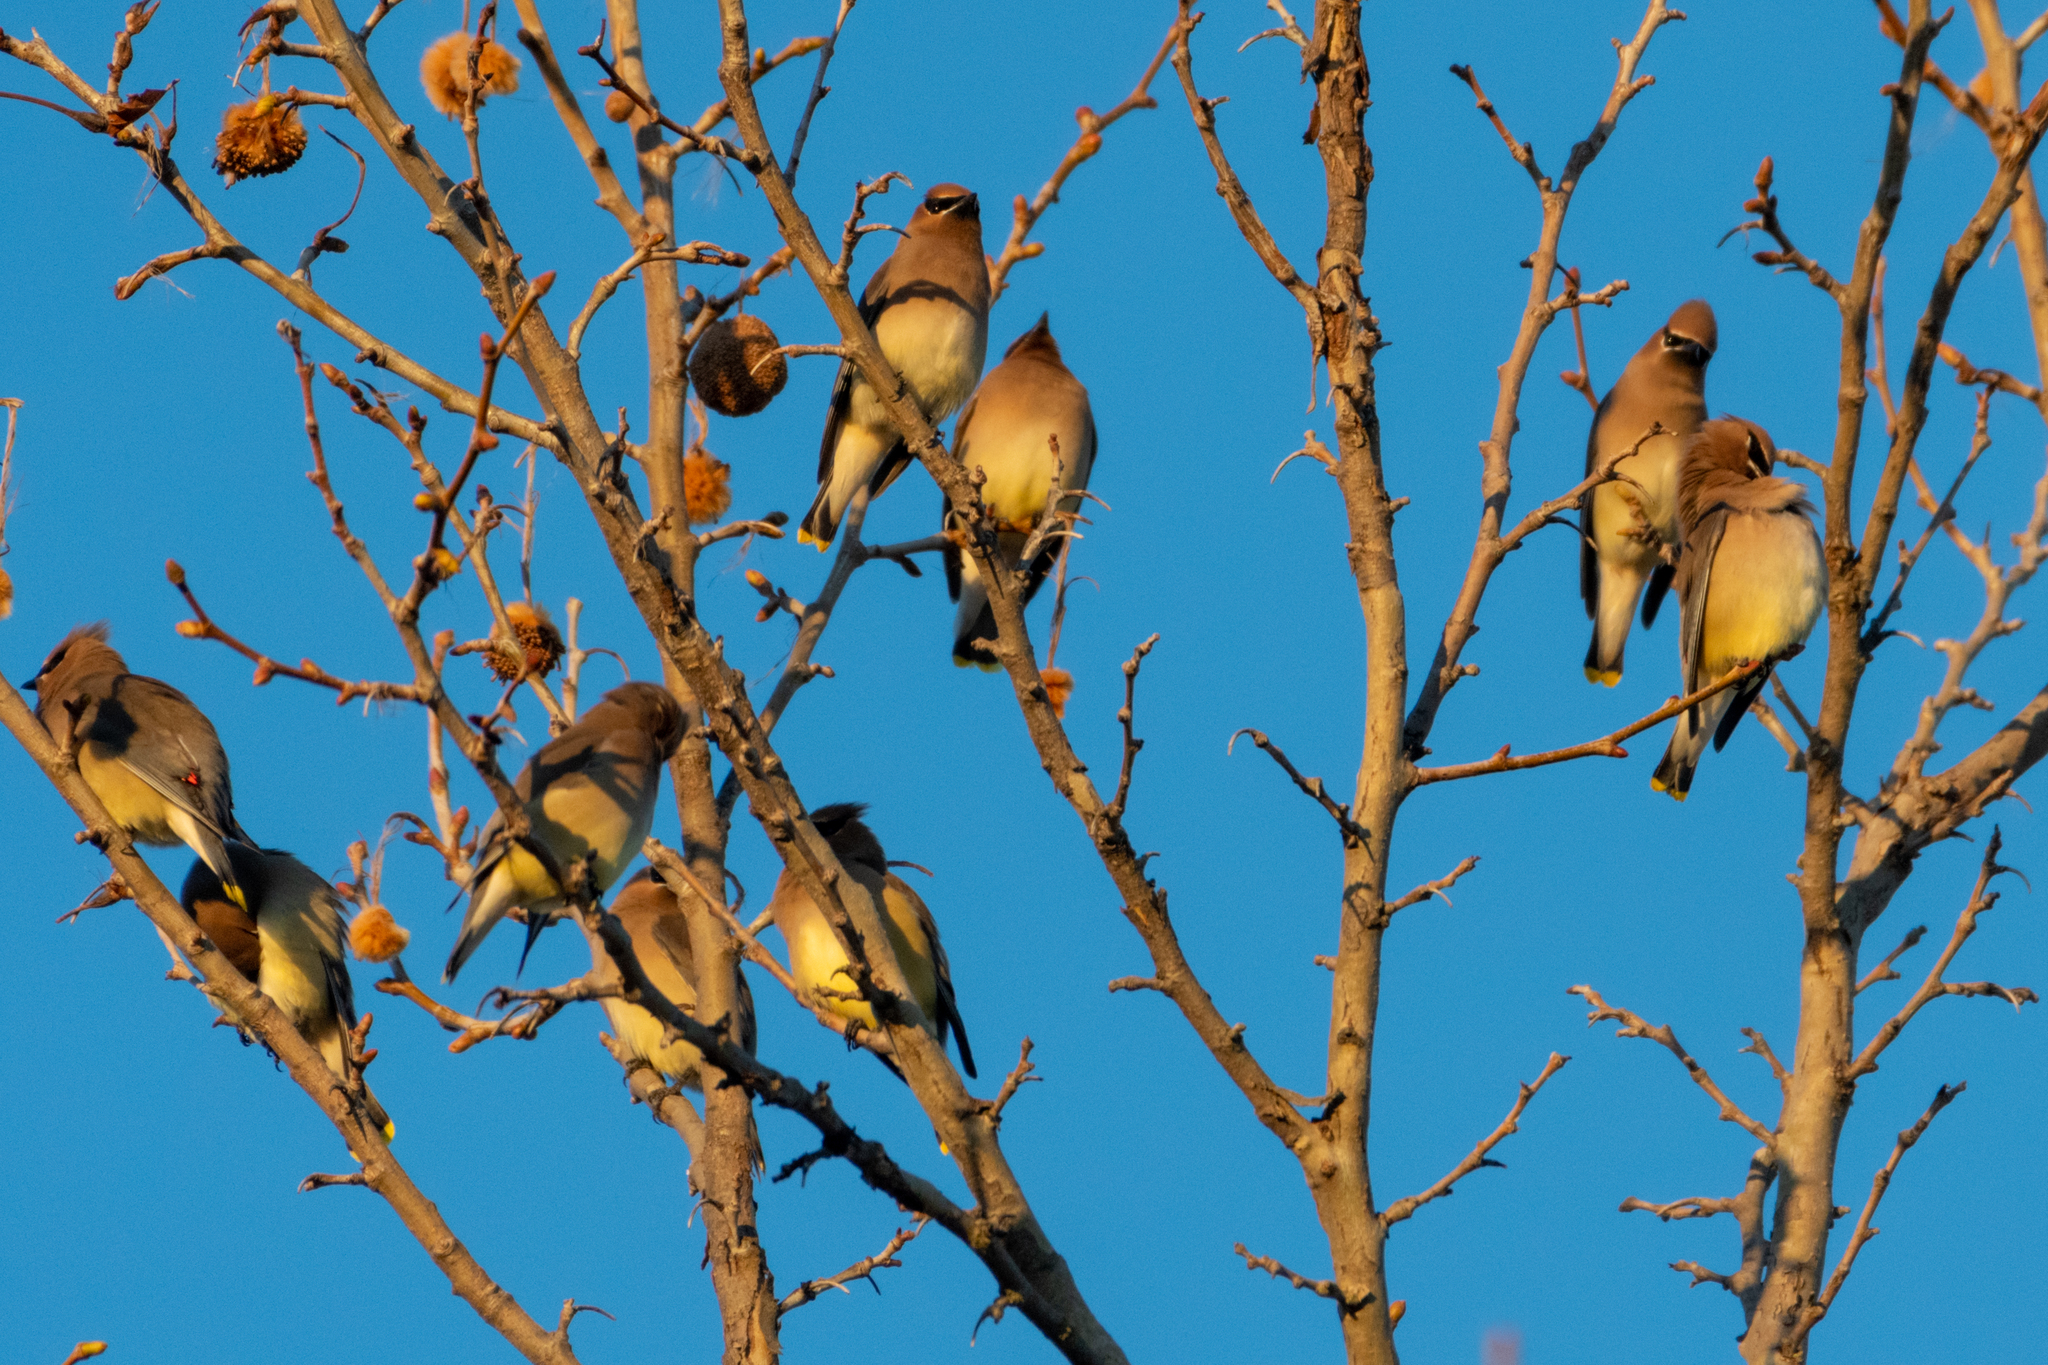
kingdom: Animalia
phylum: Chordata
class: Aves
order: Passeriformes
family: Bombycillidae
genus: Bombycilla
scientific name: Bombycilla cedrorum
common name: Cedar waxwing
